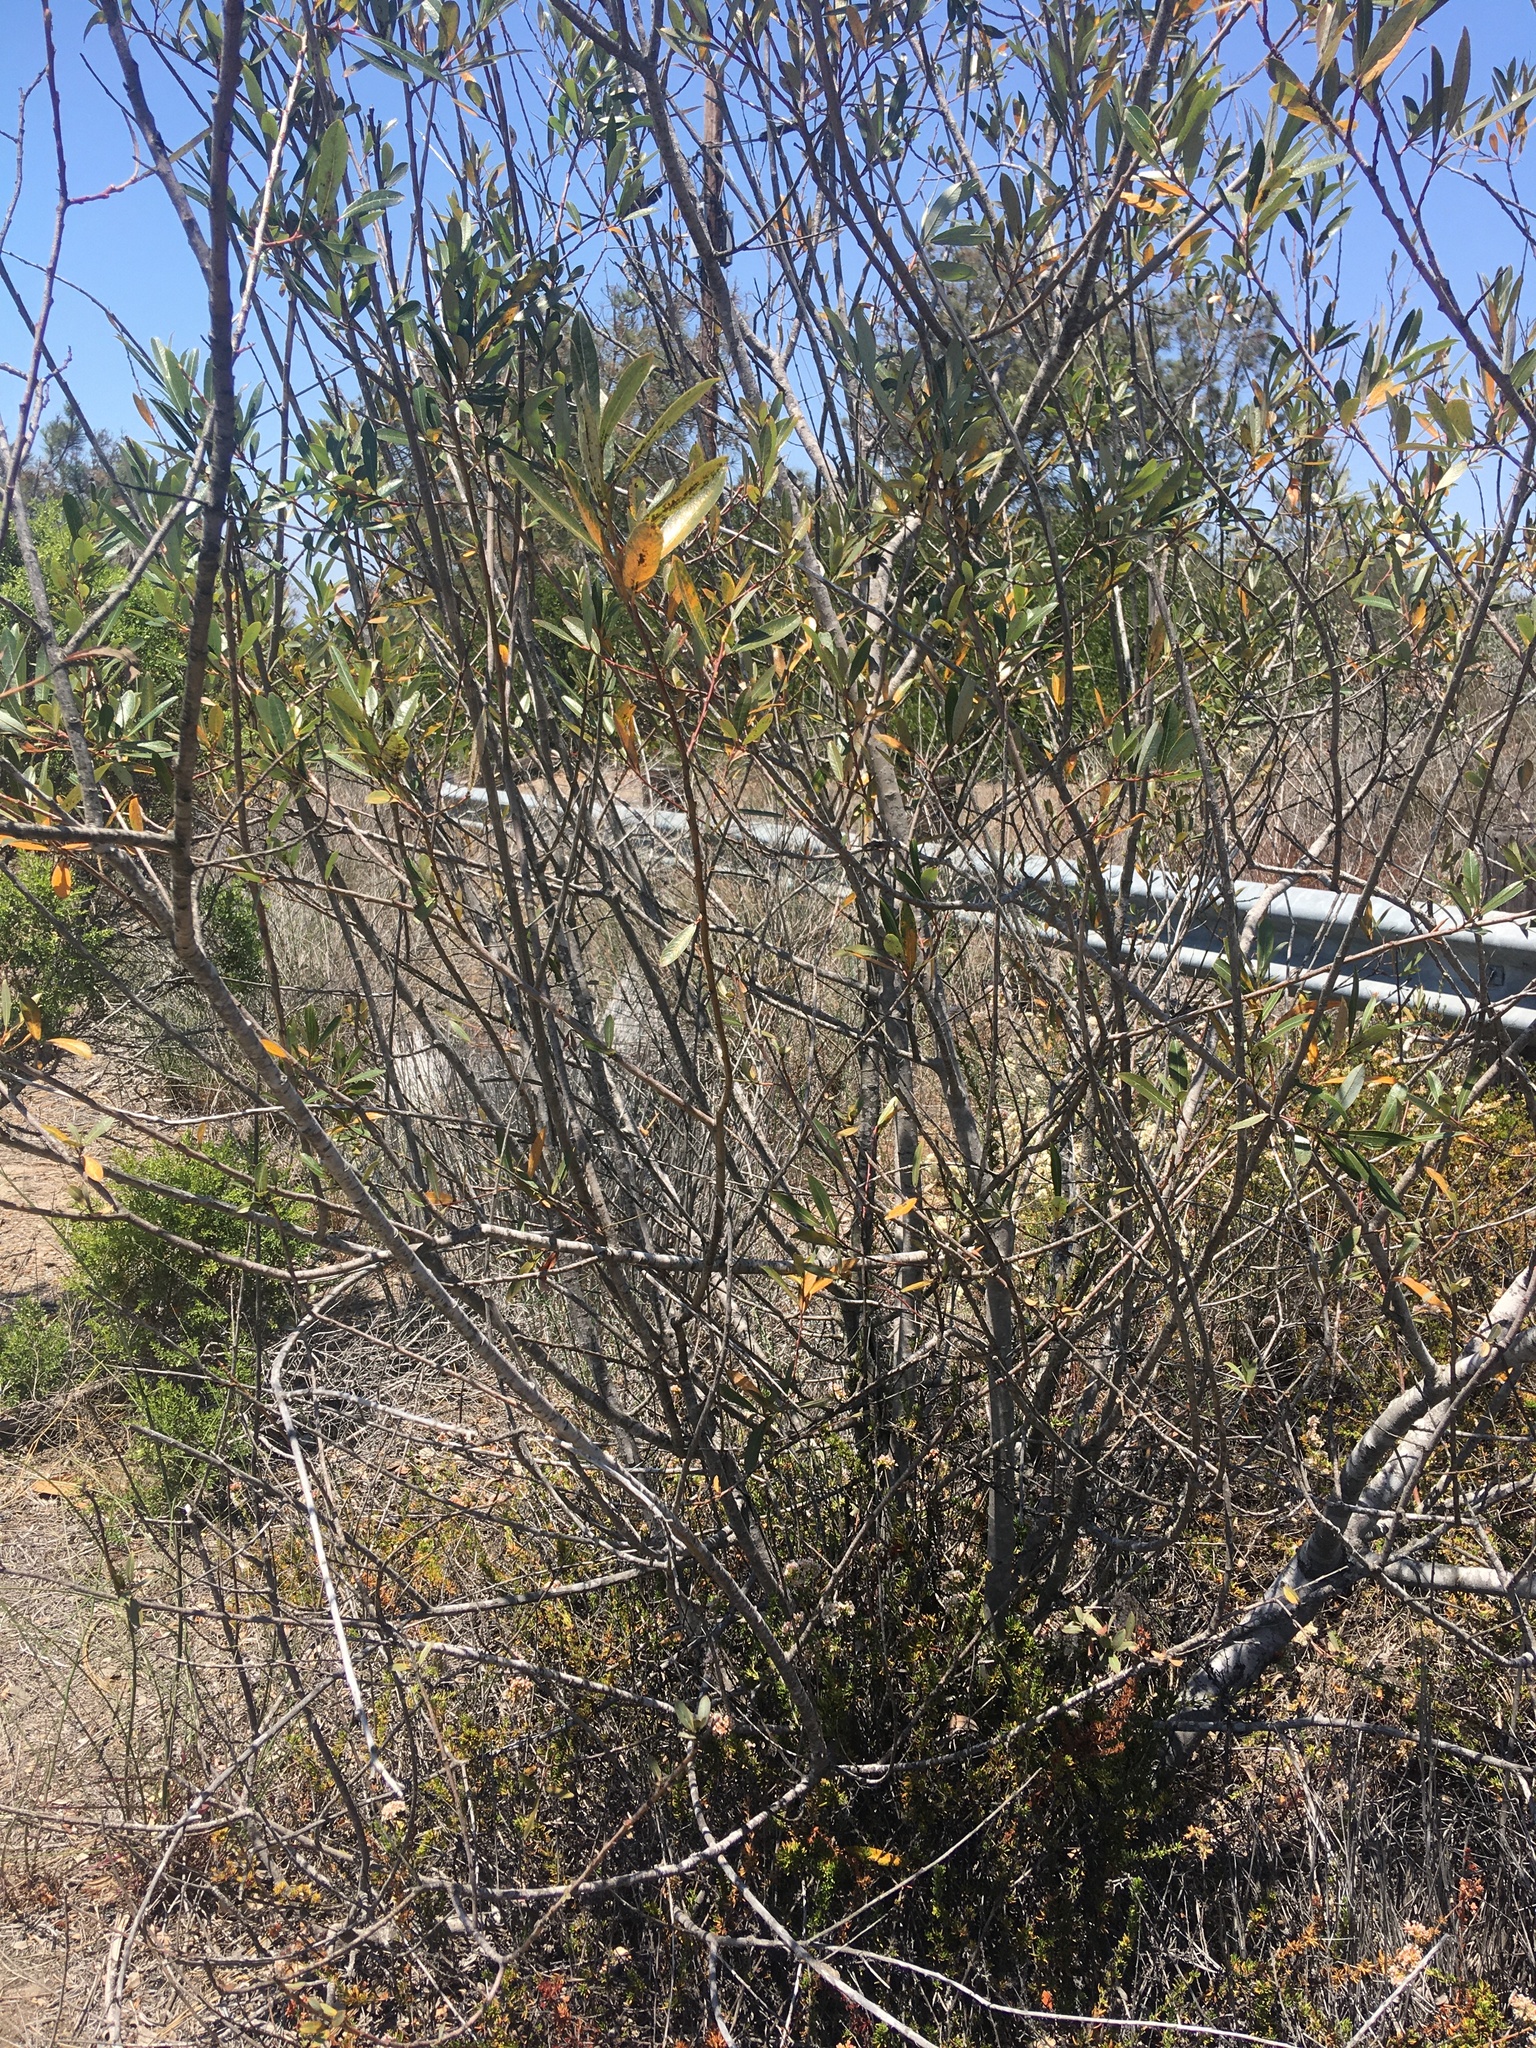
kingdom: Plantae
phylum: Tracheophyta
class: Magnoliopsida
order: Malpighiales
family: Salicaceae
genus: Salix
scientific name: Salix lasiolepis
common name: Arroyo willow
